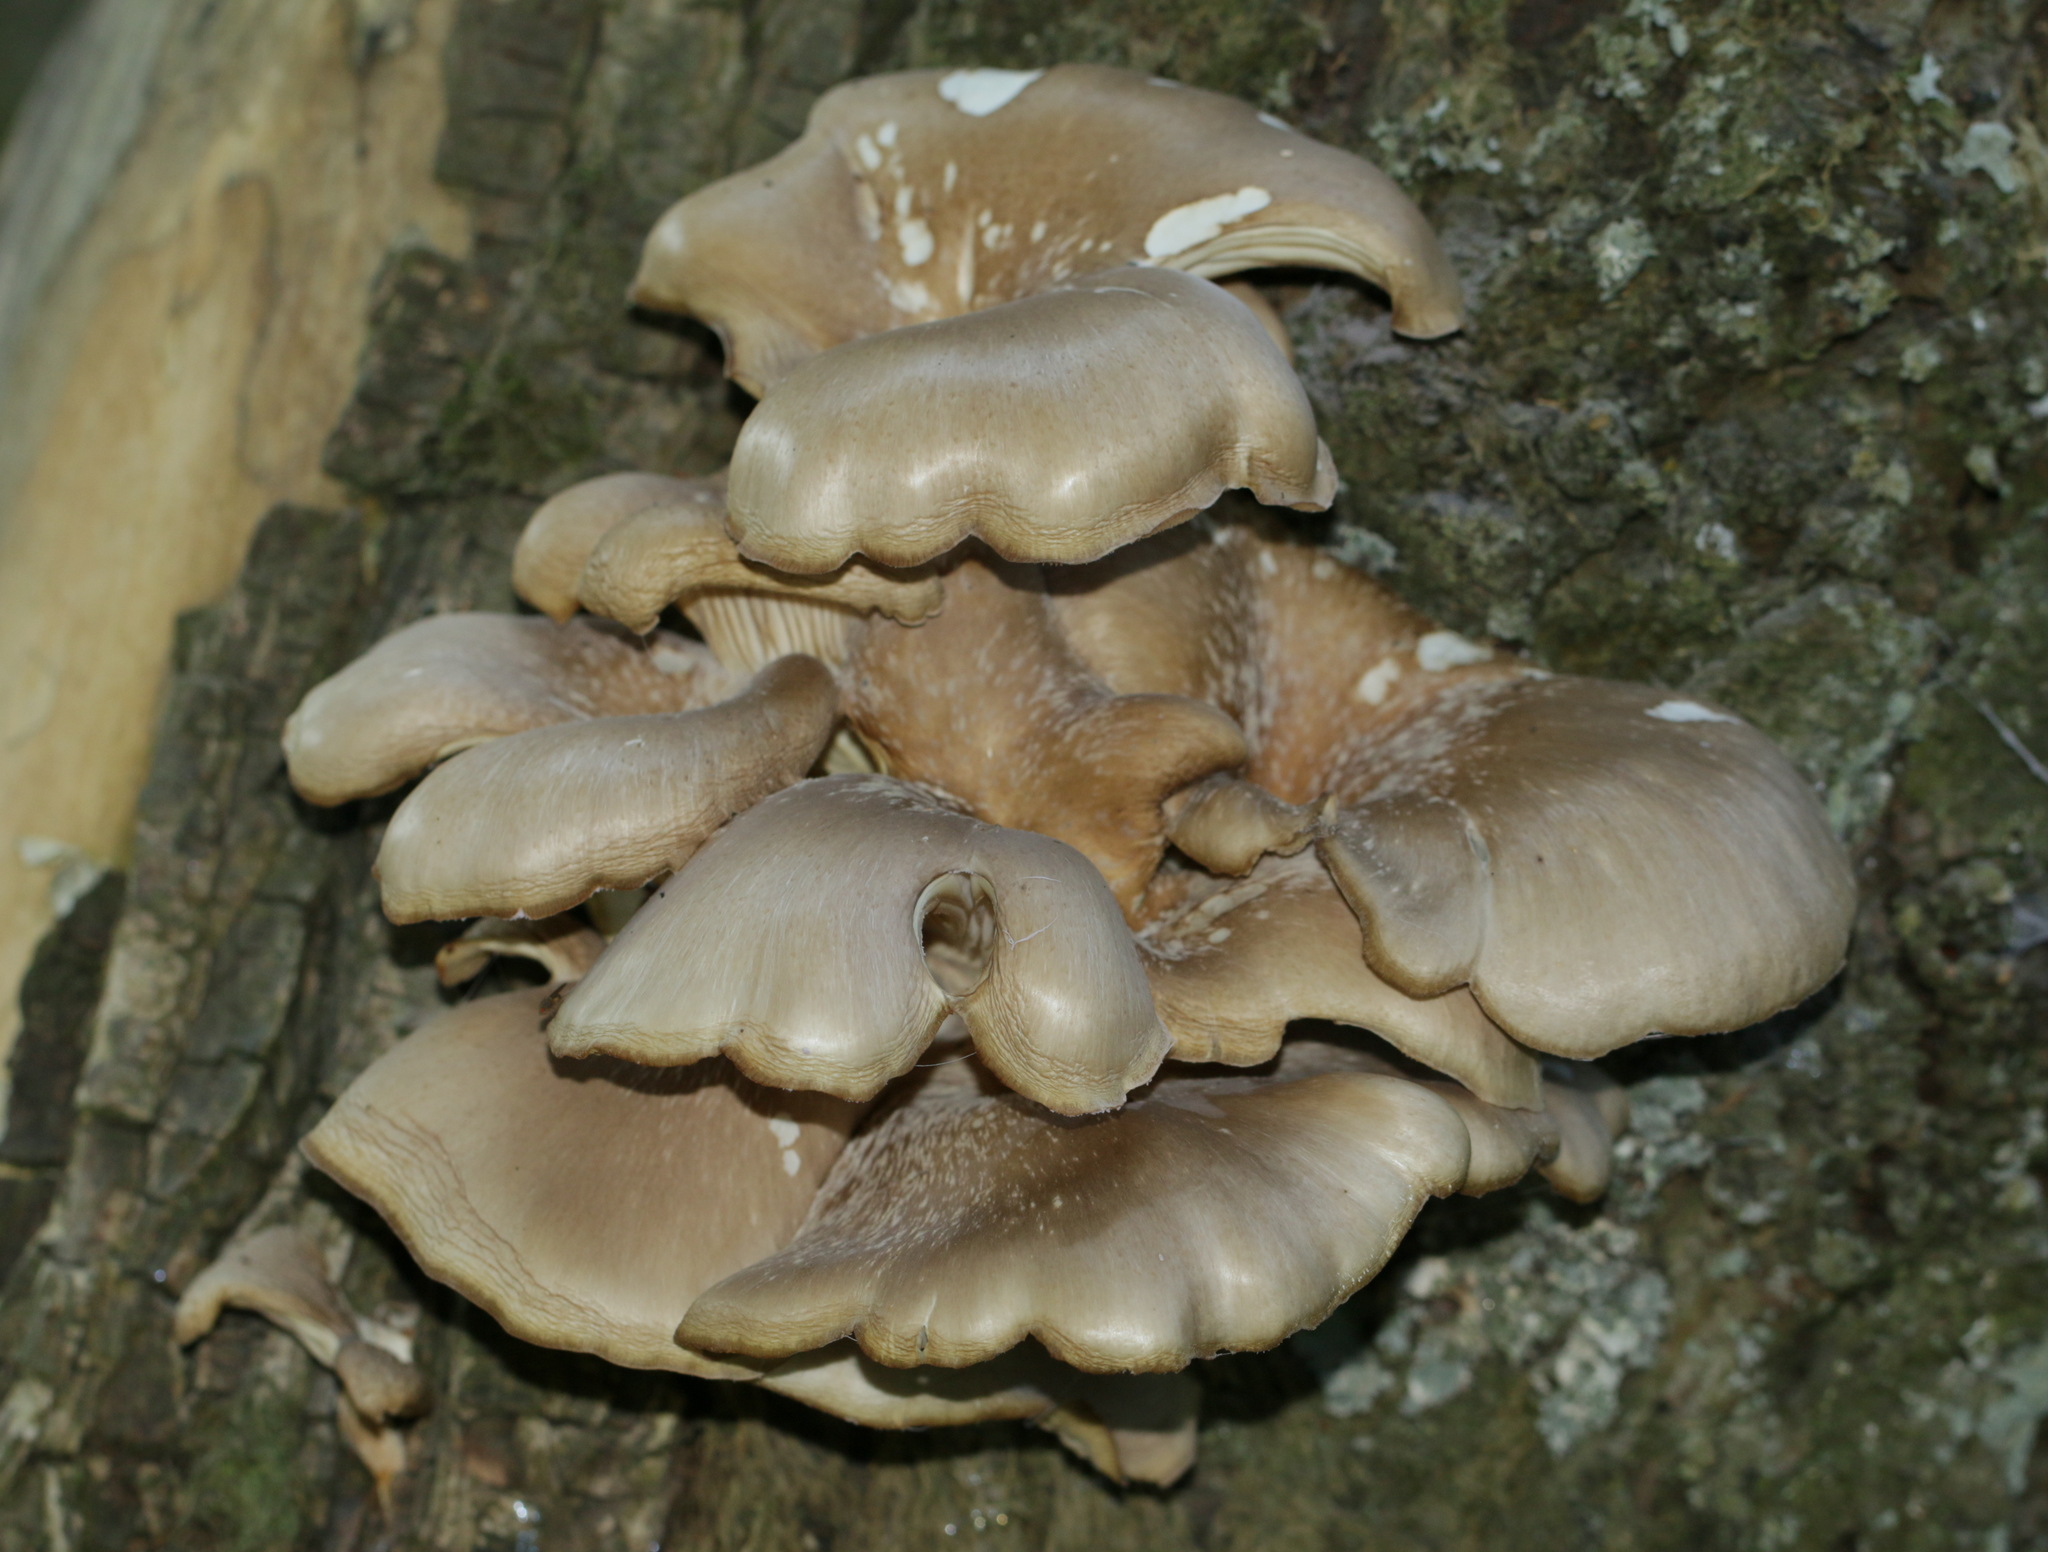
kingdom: Fungi
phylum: Basidiomycota
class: Agaricomycetes
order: Agaricales
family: Pleurotaceae
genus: Pleurotus
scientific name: Pleurotus ostreatus
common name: Oyster mushroom
